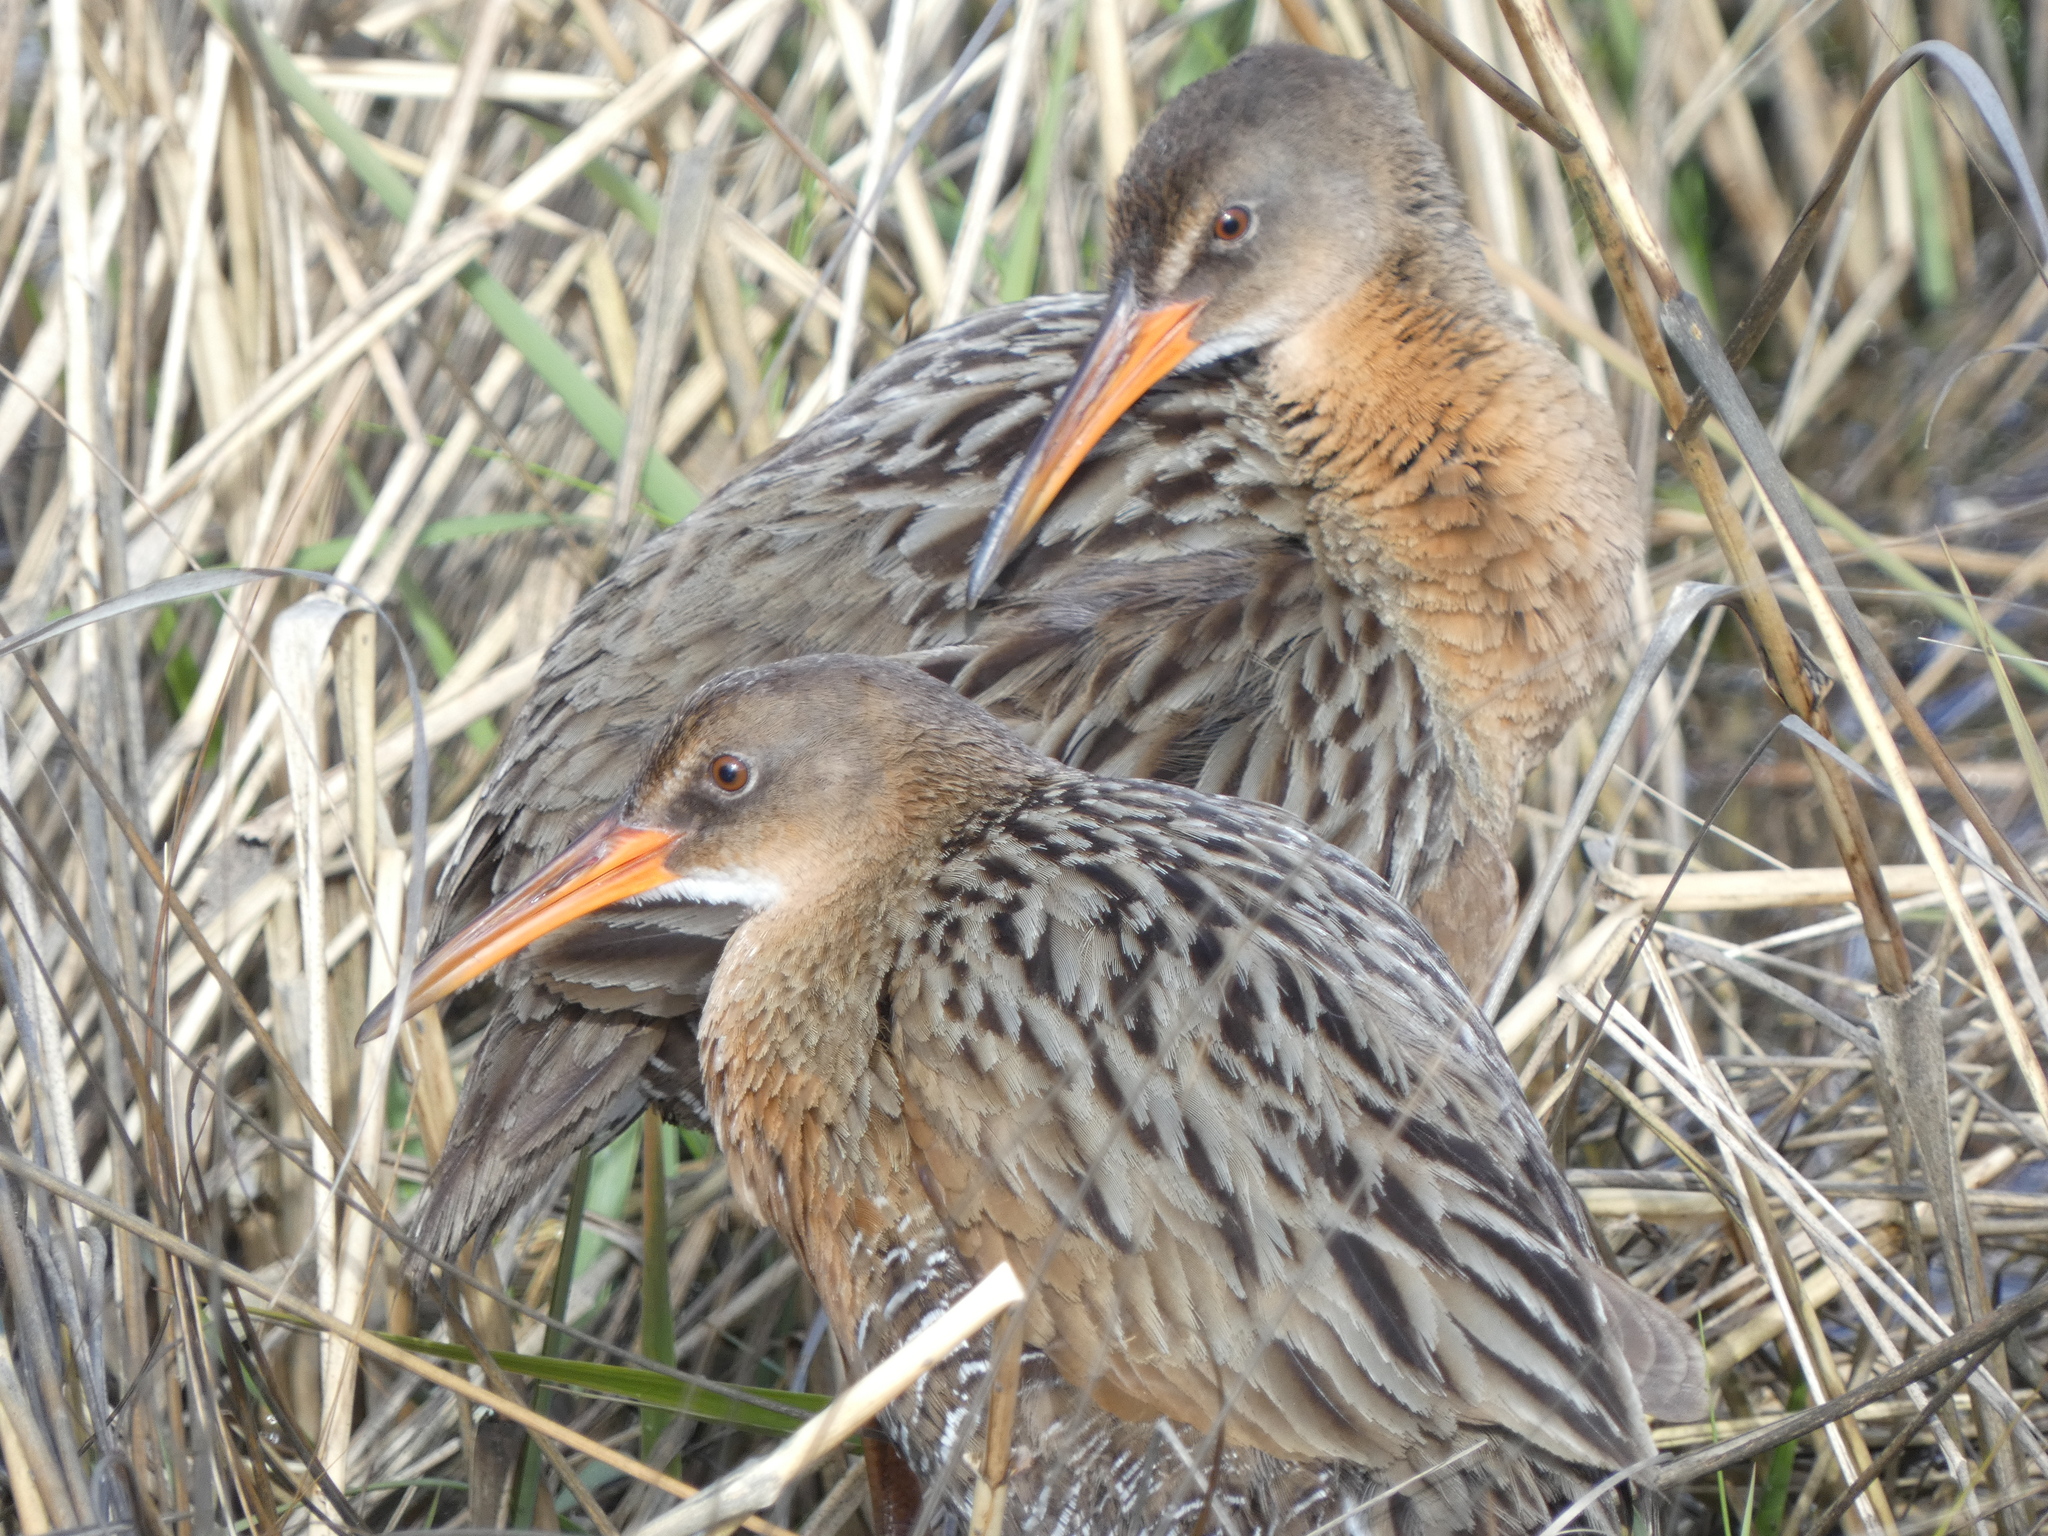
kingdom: Animalia
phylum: Chordata
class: Aves
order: Gruiformes
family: Rallidae
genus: Rallus
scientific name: Rallus obsoletus
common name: Ridgway's rail
